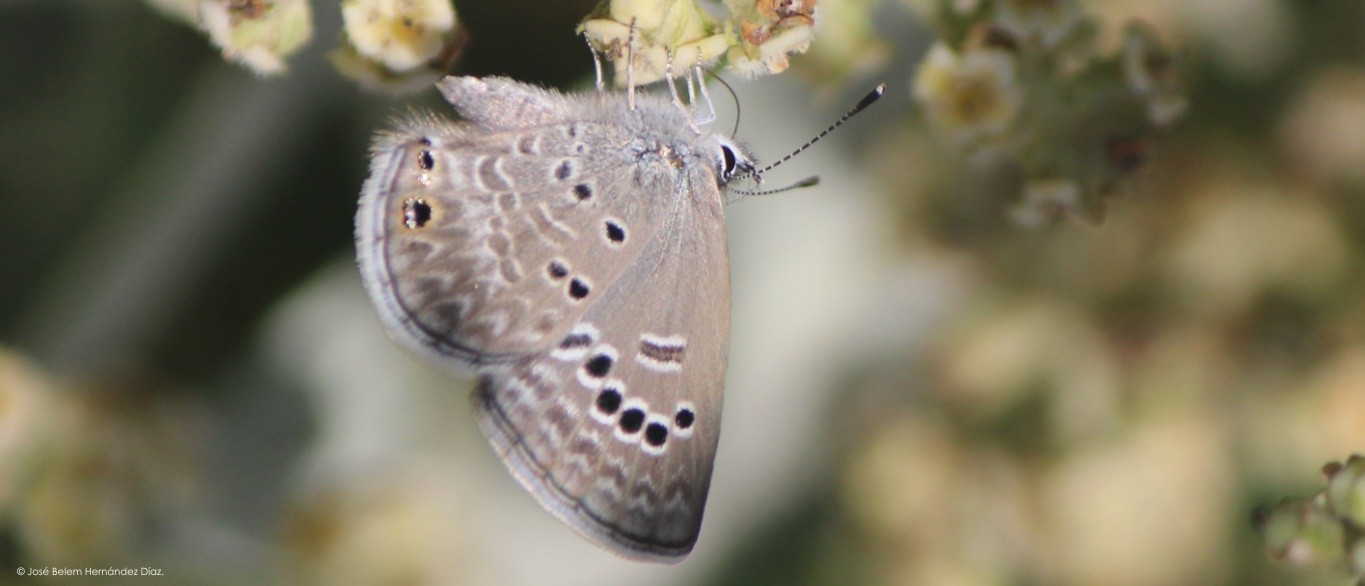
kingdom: Animalia
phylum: Arthropoda
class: Insecta
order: Lepidoptera
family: Lycaenidae
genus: Echinargus
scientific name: Echinargus isola
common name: Reakirt's blue
